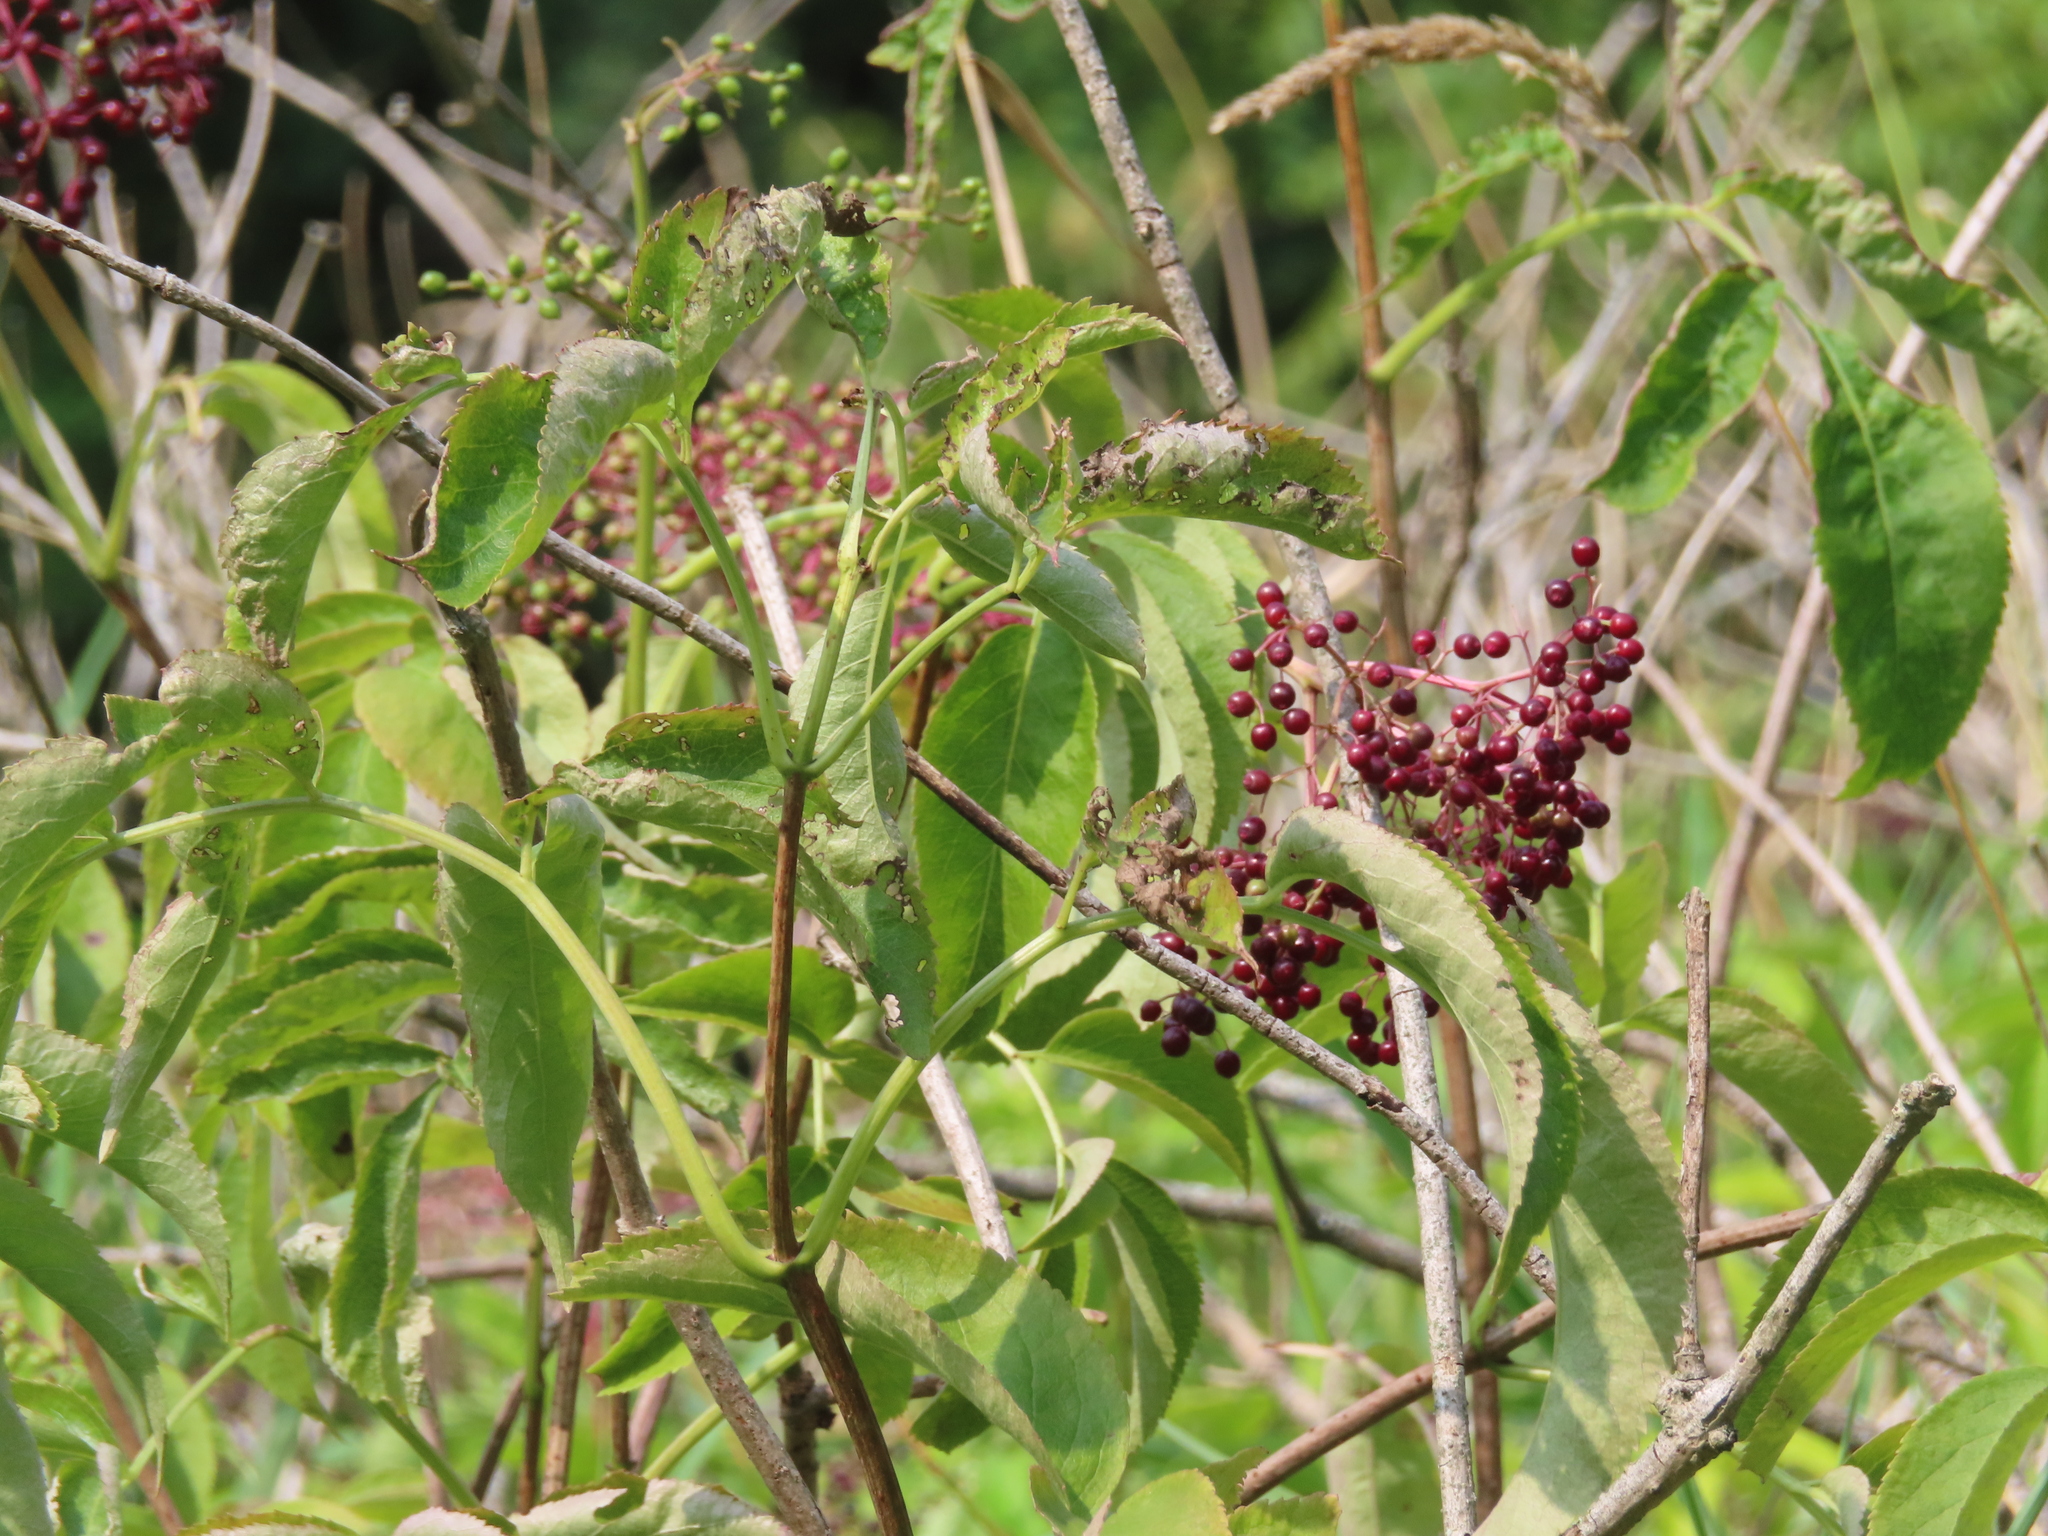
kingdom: Plantae
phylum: Tracheophyta
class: Magnoliopsida
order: Dipsacales
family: Viburnaceae
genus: Sambucus
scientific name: Sambucus canadensis
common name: American elder
